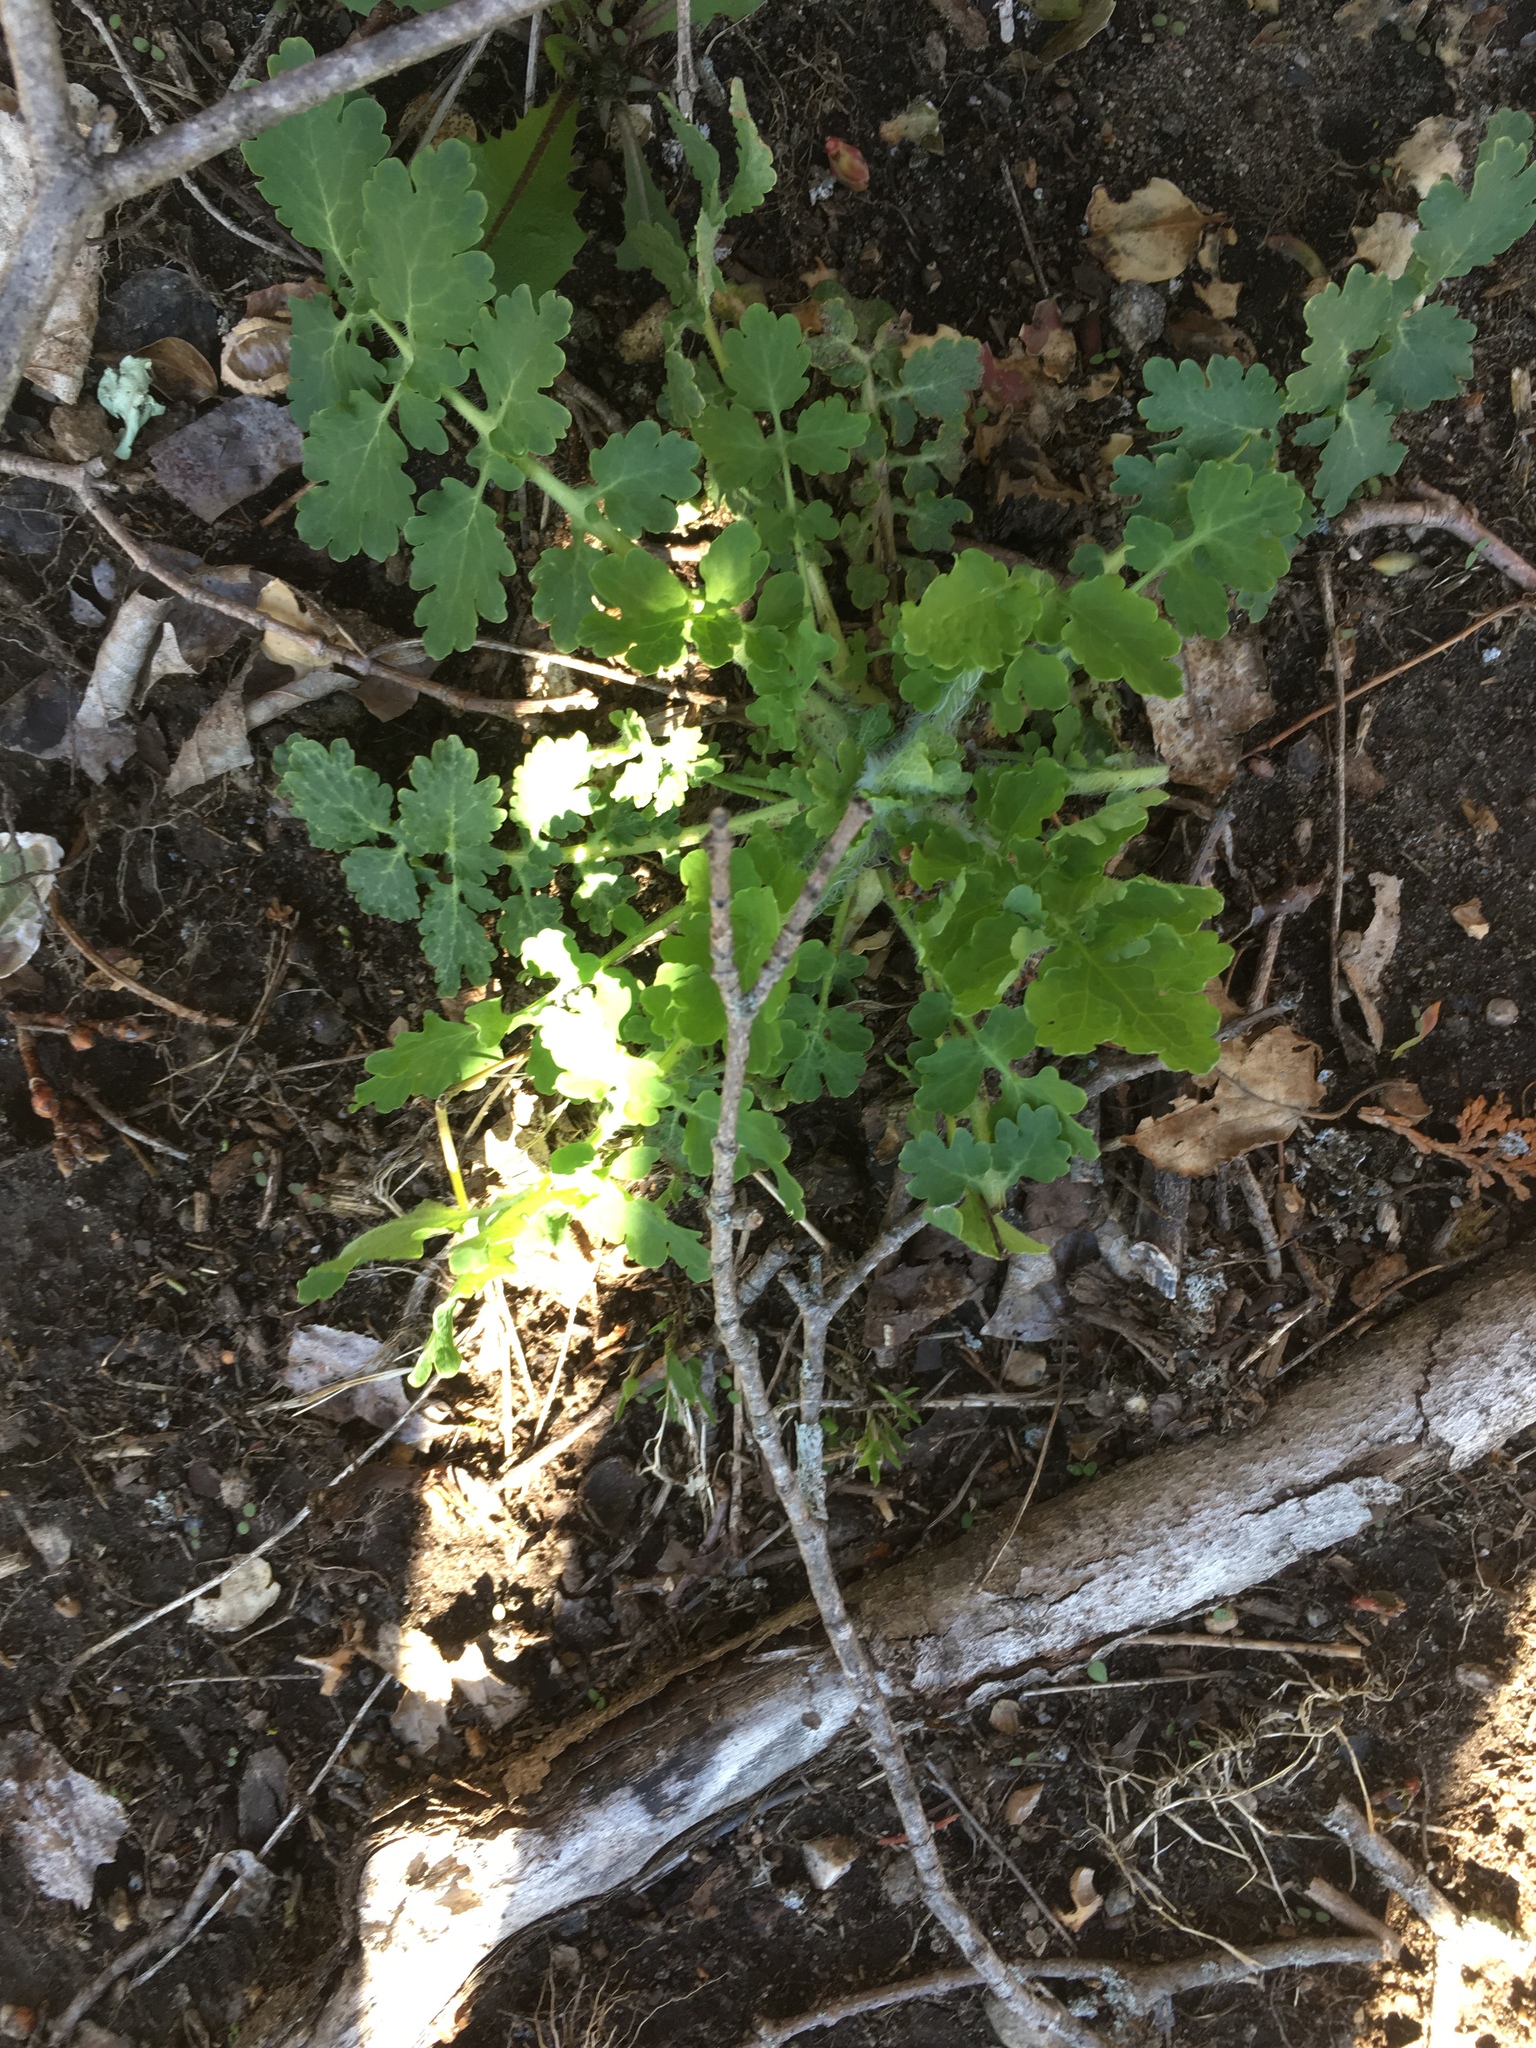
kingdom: Plantae
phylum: Tracheophyta
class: Magnoliopsida
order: Ranunculales
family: Papaveraceae
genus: Chelidonium
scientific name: Chelidonium majus
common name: Greater celandine
